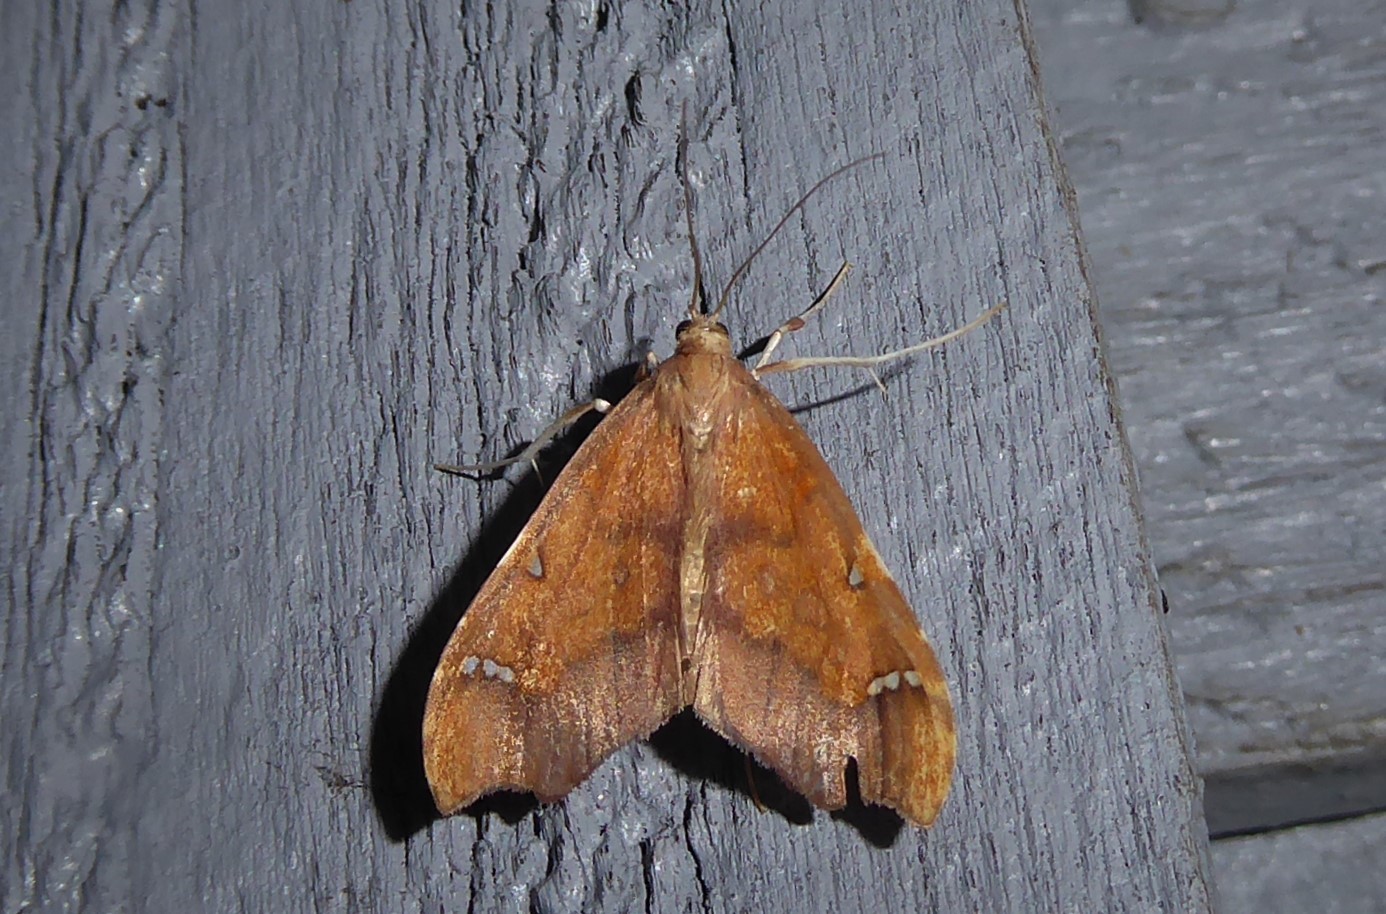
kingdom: Animalia
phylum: Arthropoda
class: Insecta
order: Lepidoptera
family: Crambidae
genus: Deana
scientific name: Deana hybreasalis
